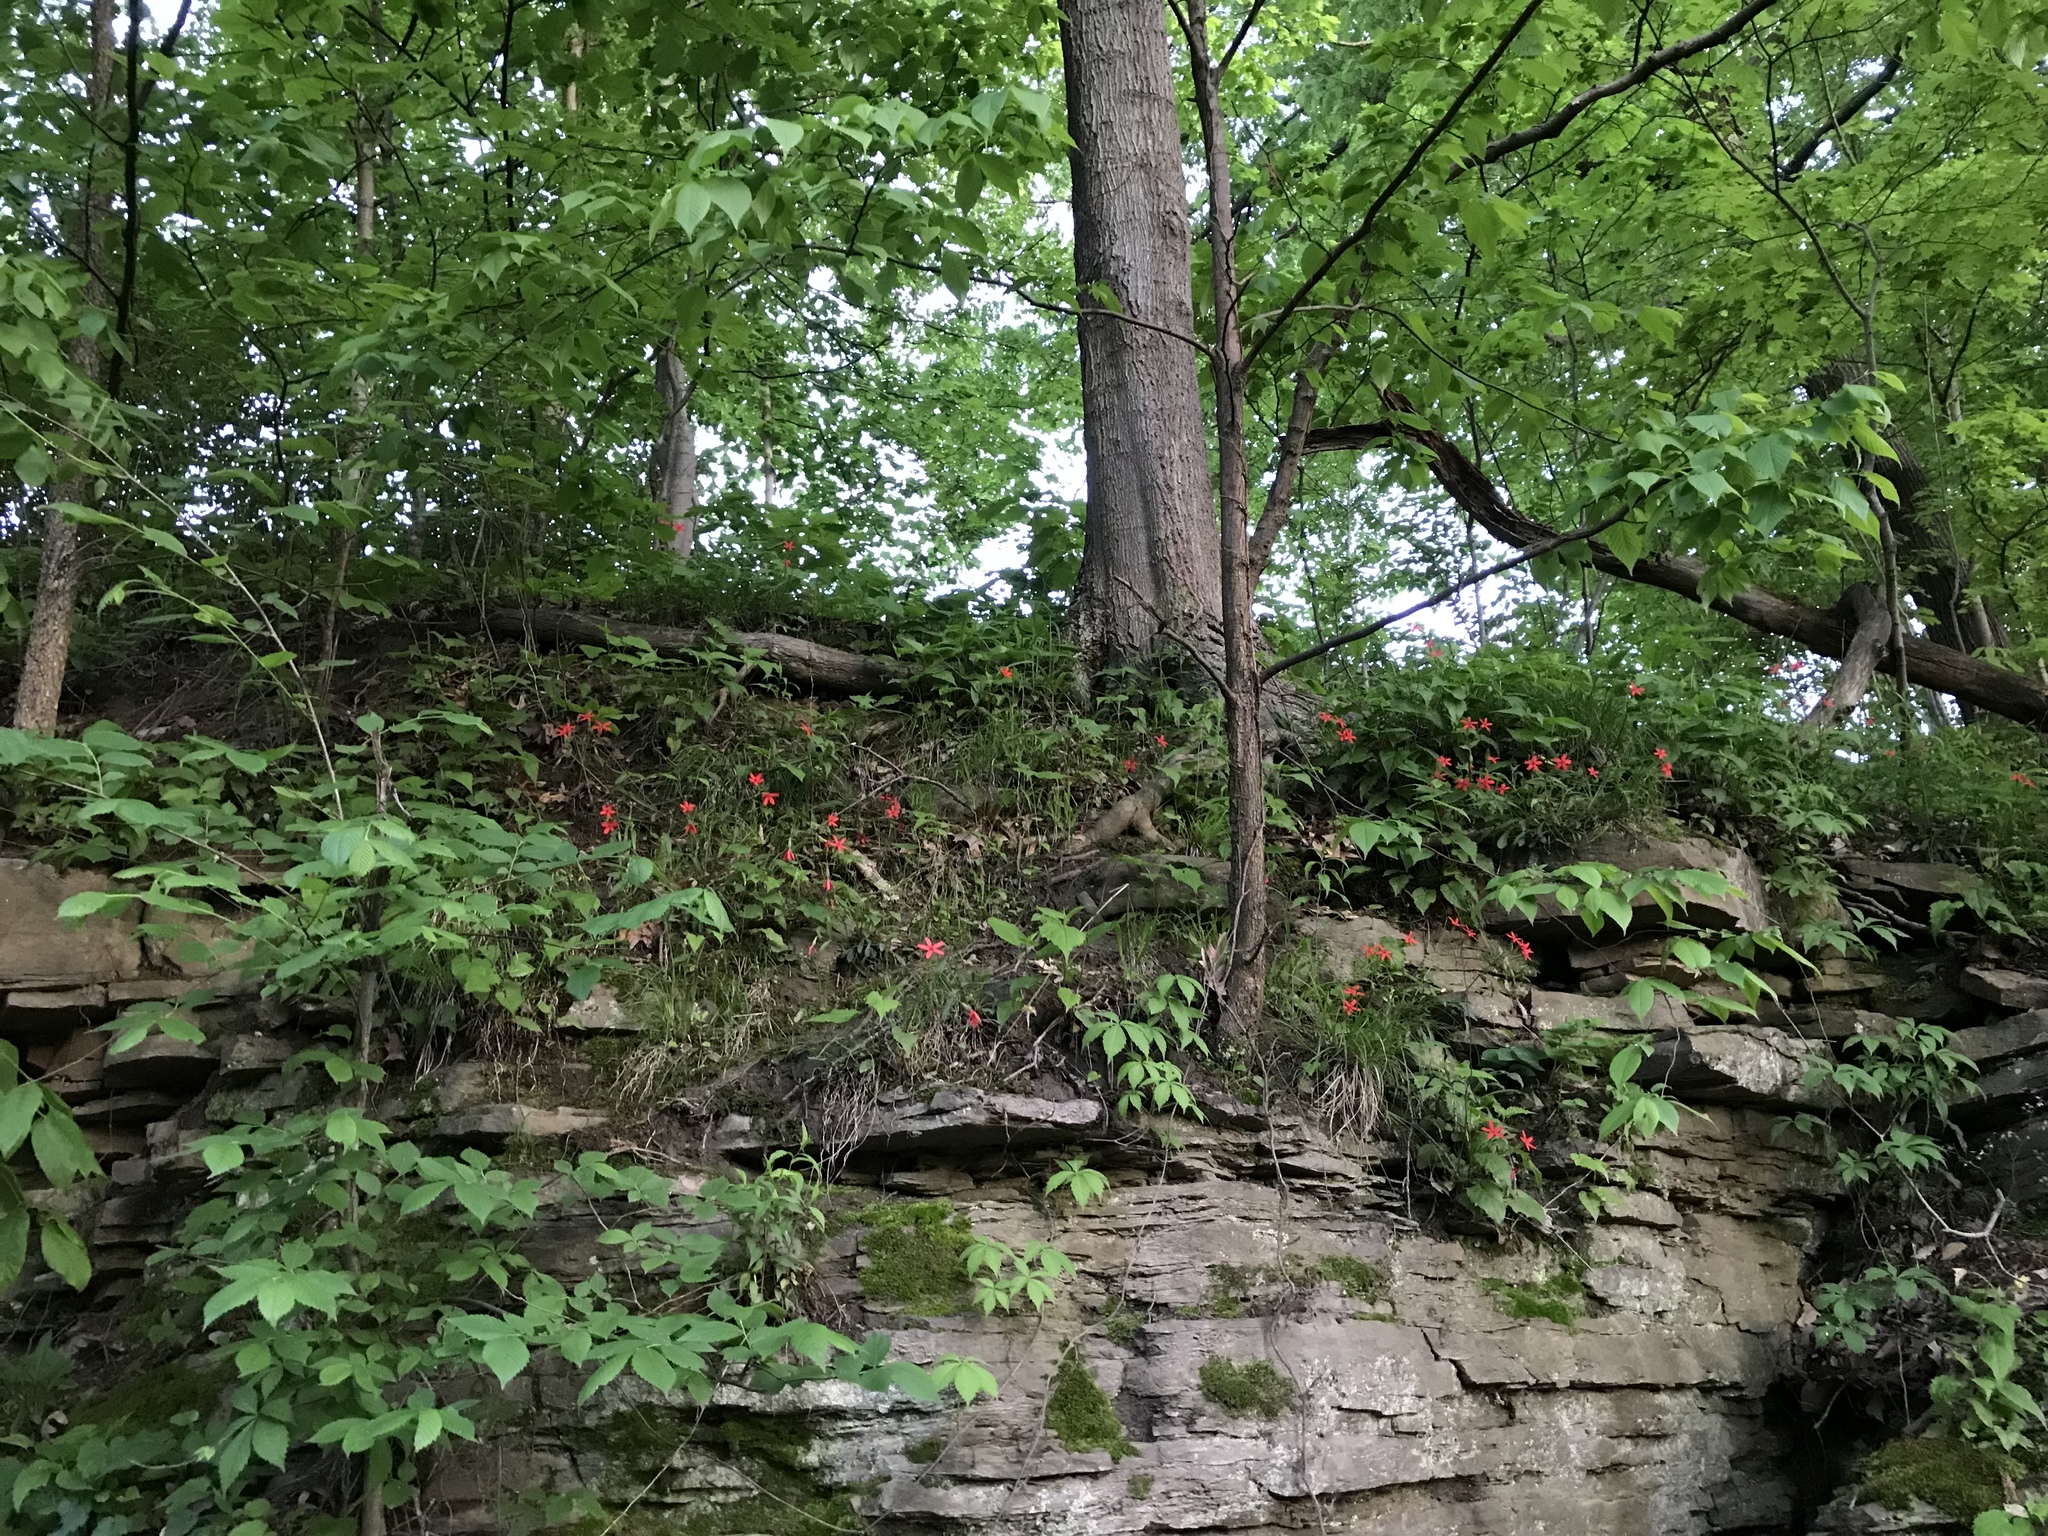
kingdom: Plantae
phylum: Tracheophyta
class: Magnoliopsida
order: Caryophyllales
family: Caryophyllaceae
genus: Silene
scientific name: Silene virginica
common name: Fire-pink
